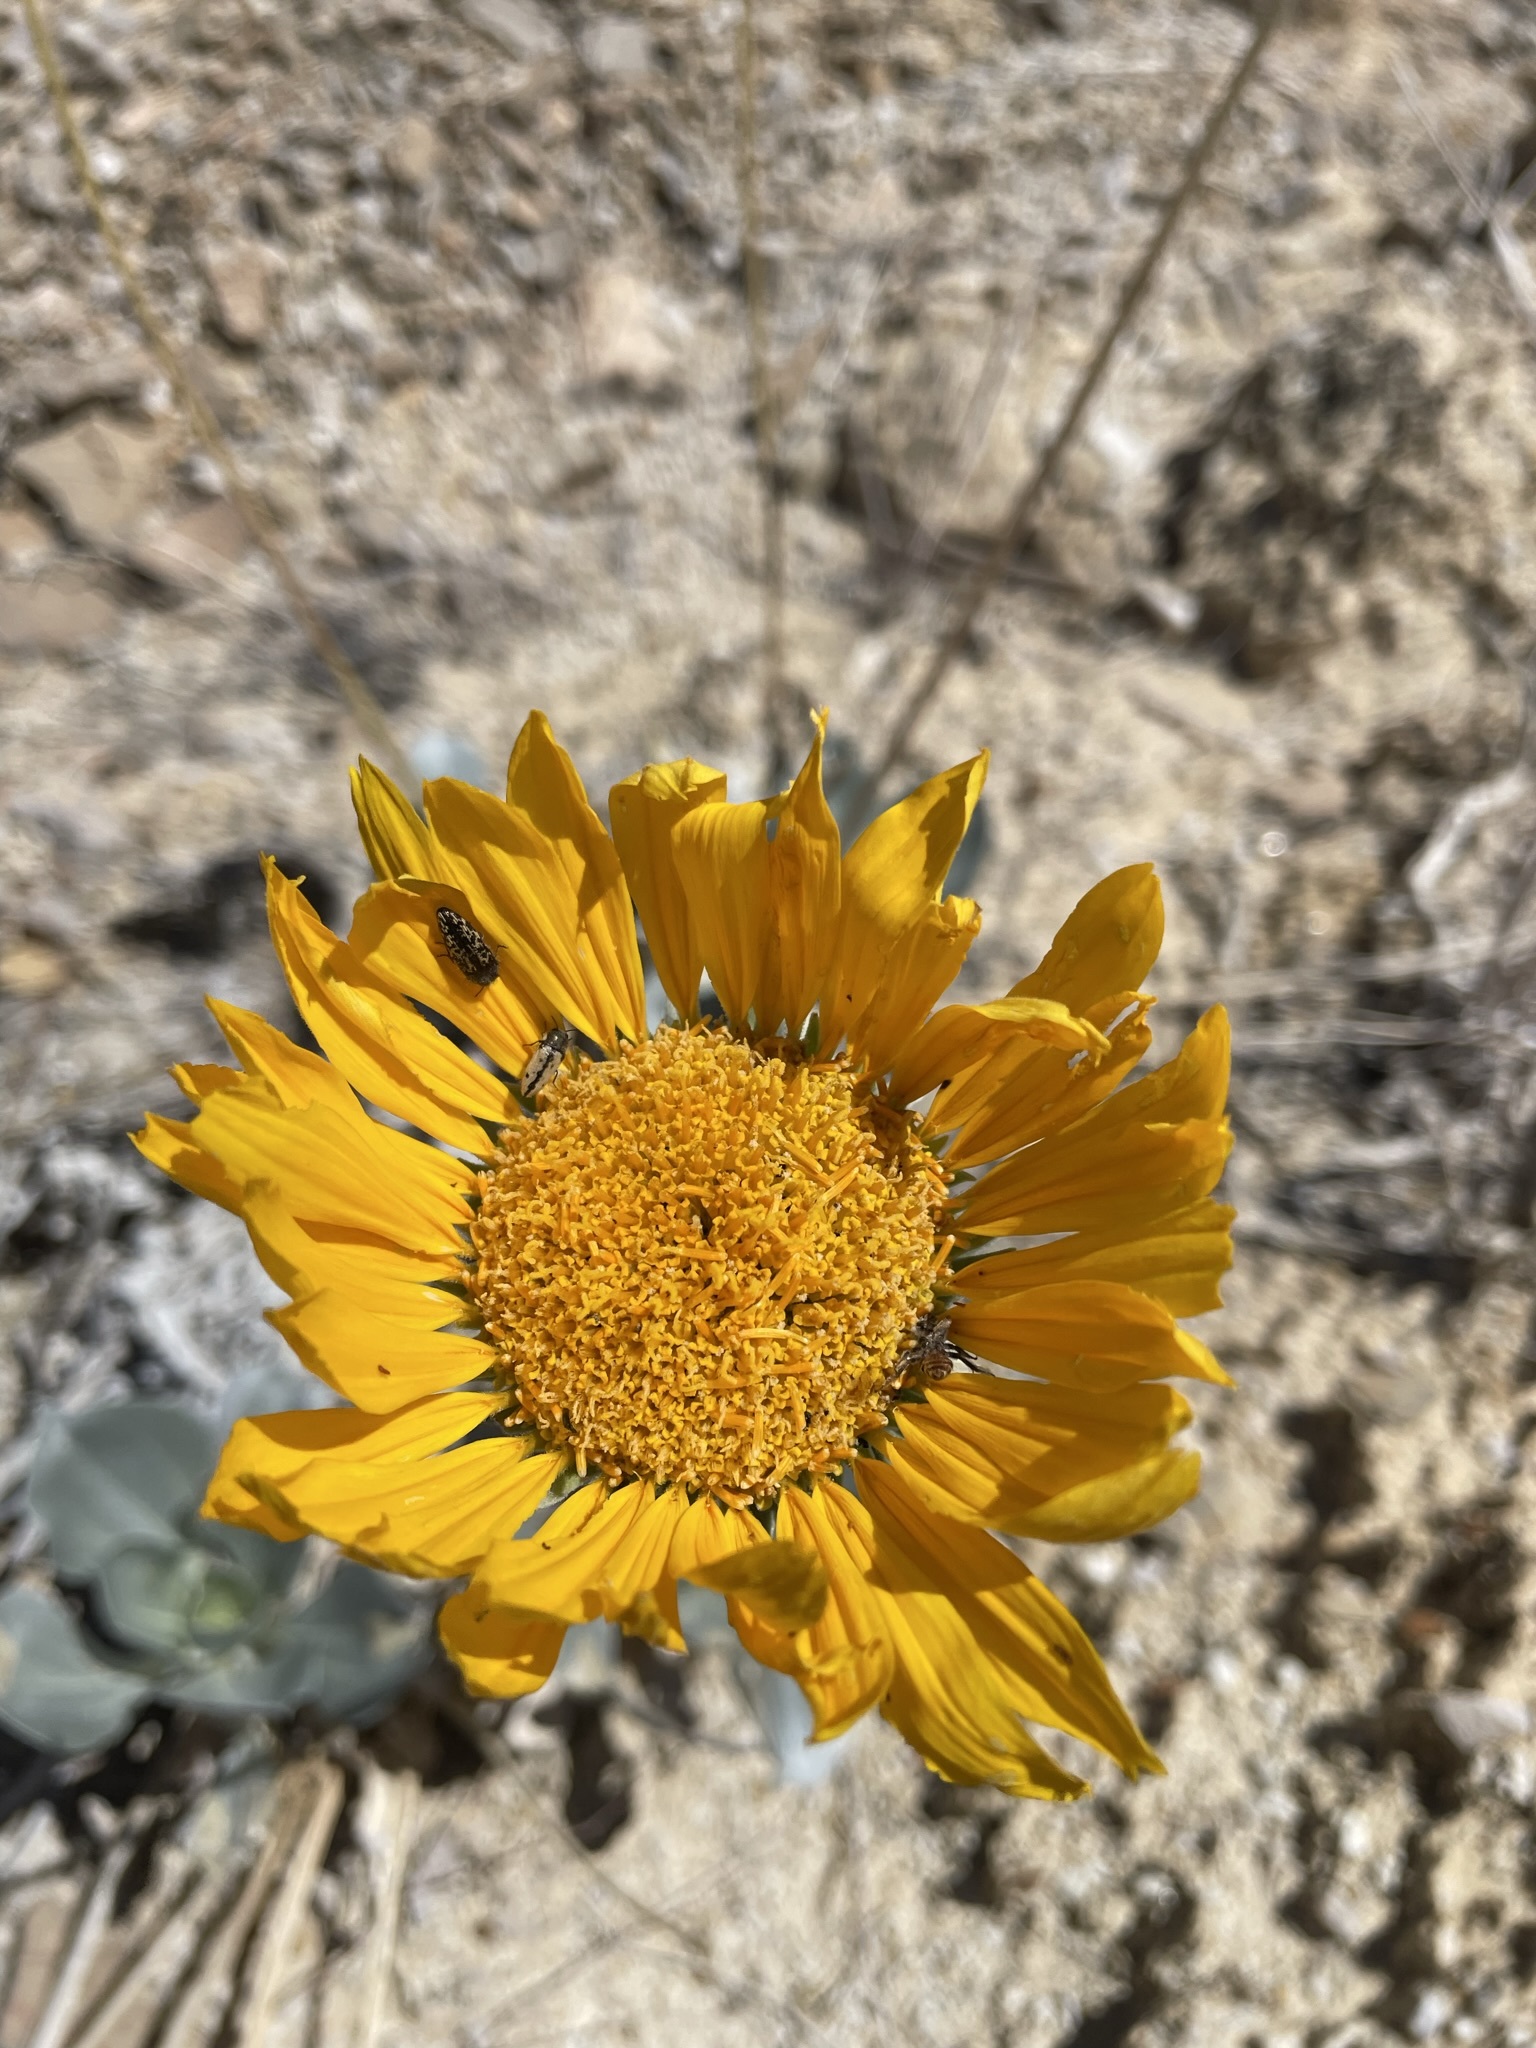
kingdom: Plantae
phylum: Tracheophyta
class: Magnoliopsida
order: Asterales
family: Asteraceae
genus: Enceliopsis
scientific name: Enceliopsis argophylla
